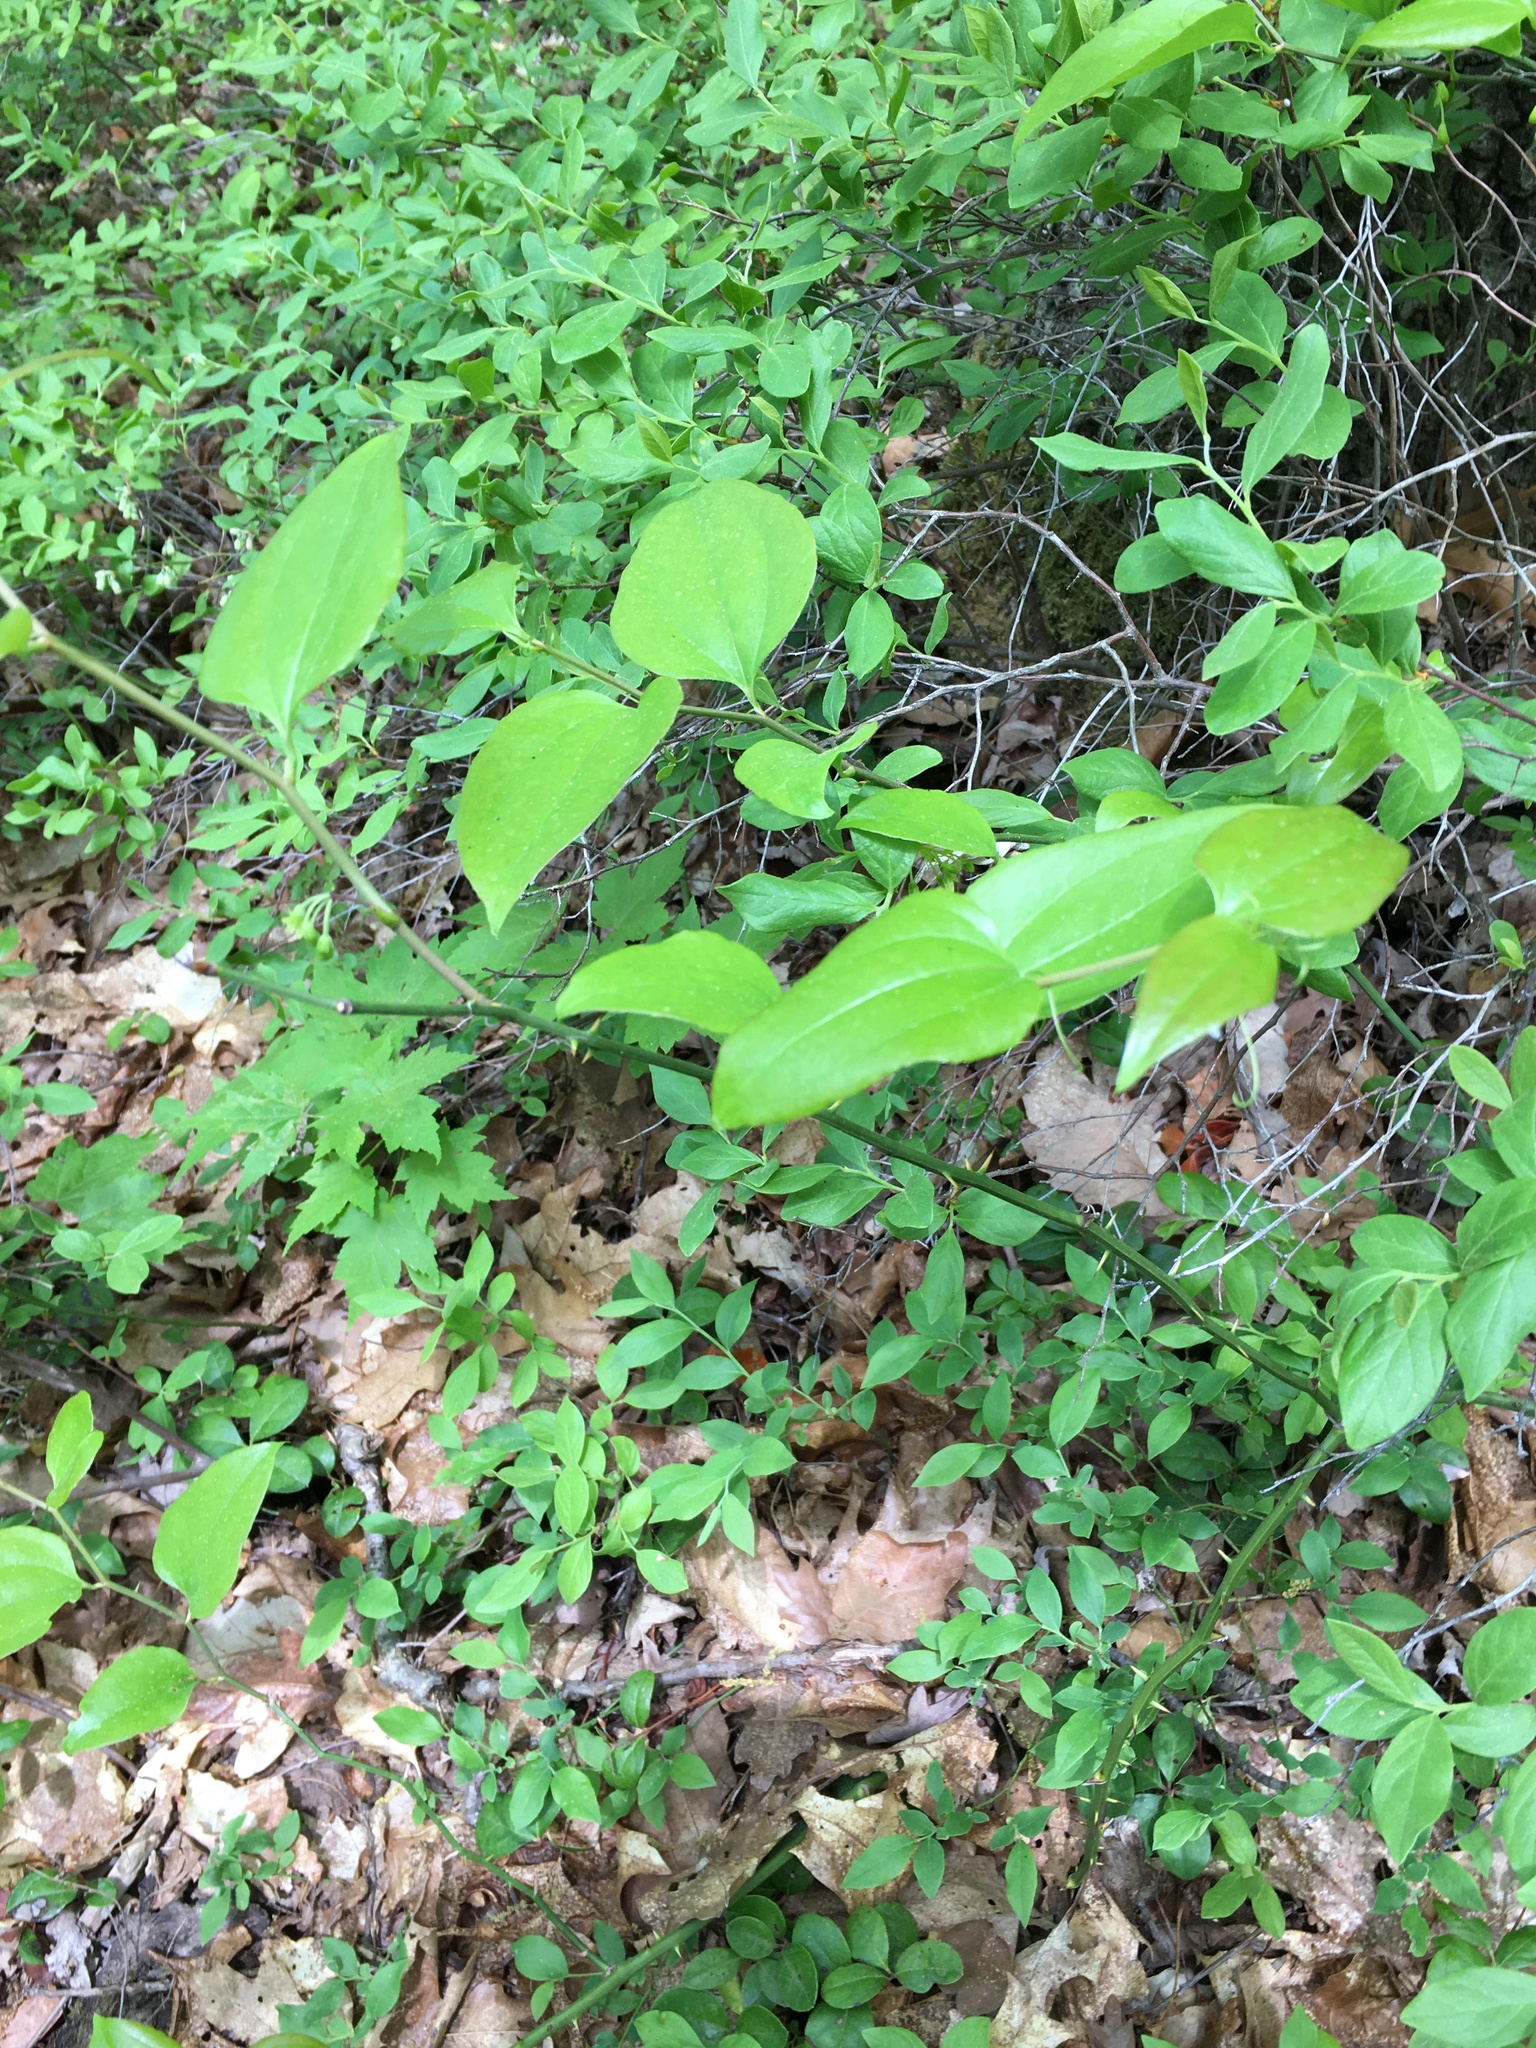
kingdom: Plantae
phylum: Tracheophyta
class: Liliopsida
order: Liliales
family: Smilacaceae
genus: Smilax
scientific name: Smilax rotundifolia
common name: Bullbriar
